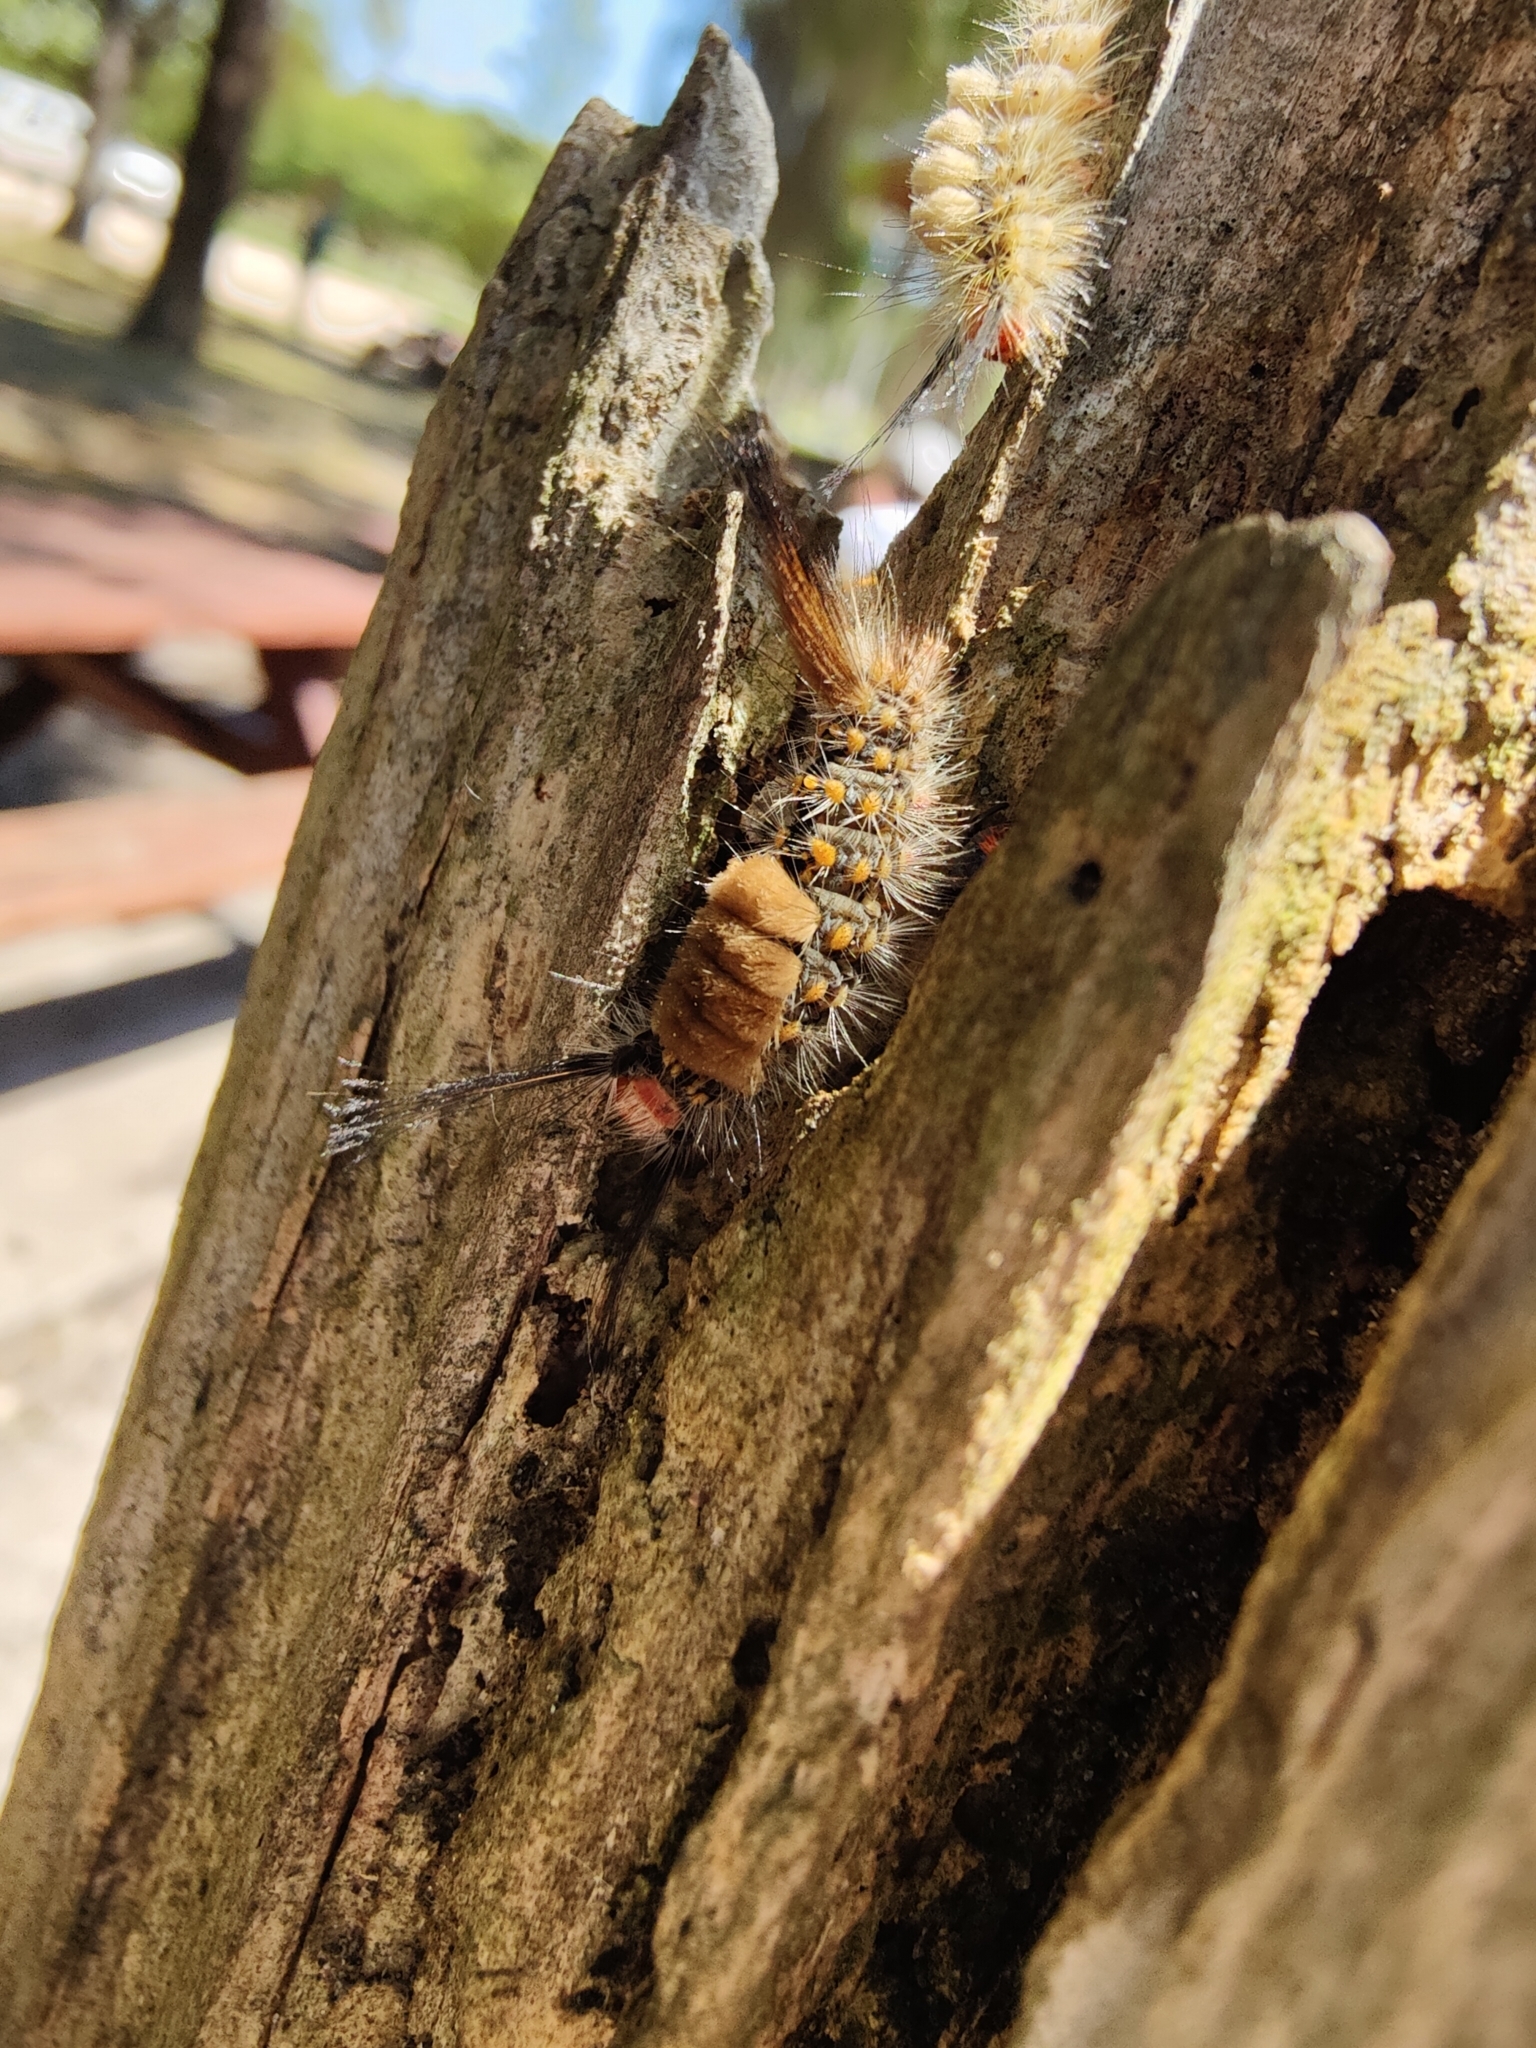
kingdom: Animalia
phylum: Arthropoda
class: Insecta
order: Lepidoptera
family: Erebidae
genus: Orgyia
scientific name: Orgyia detrita
